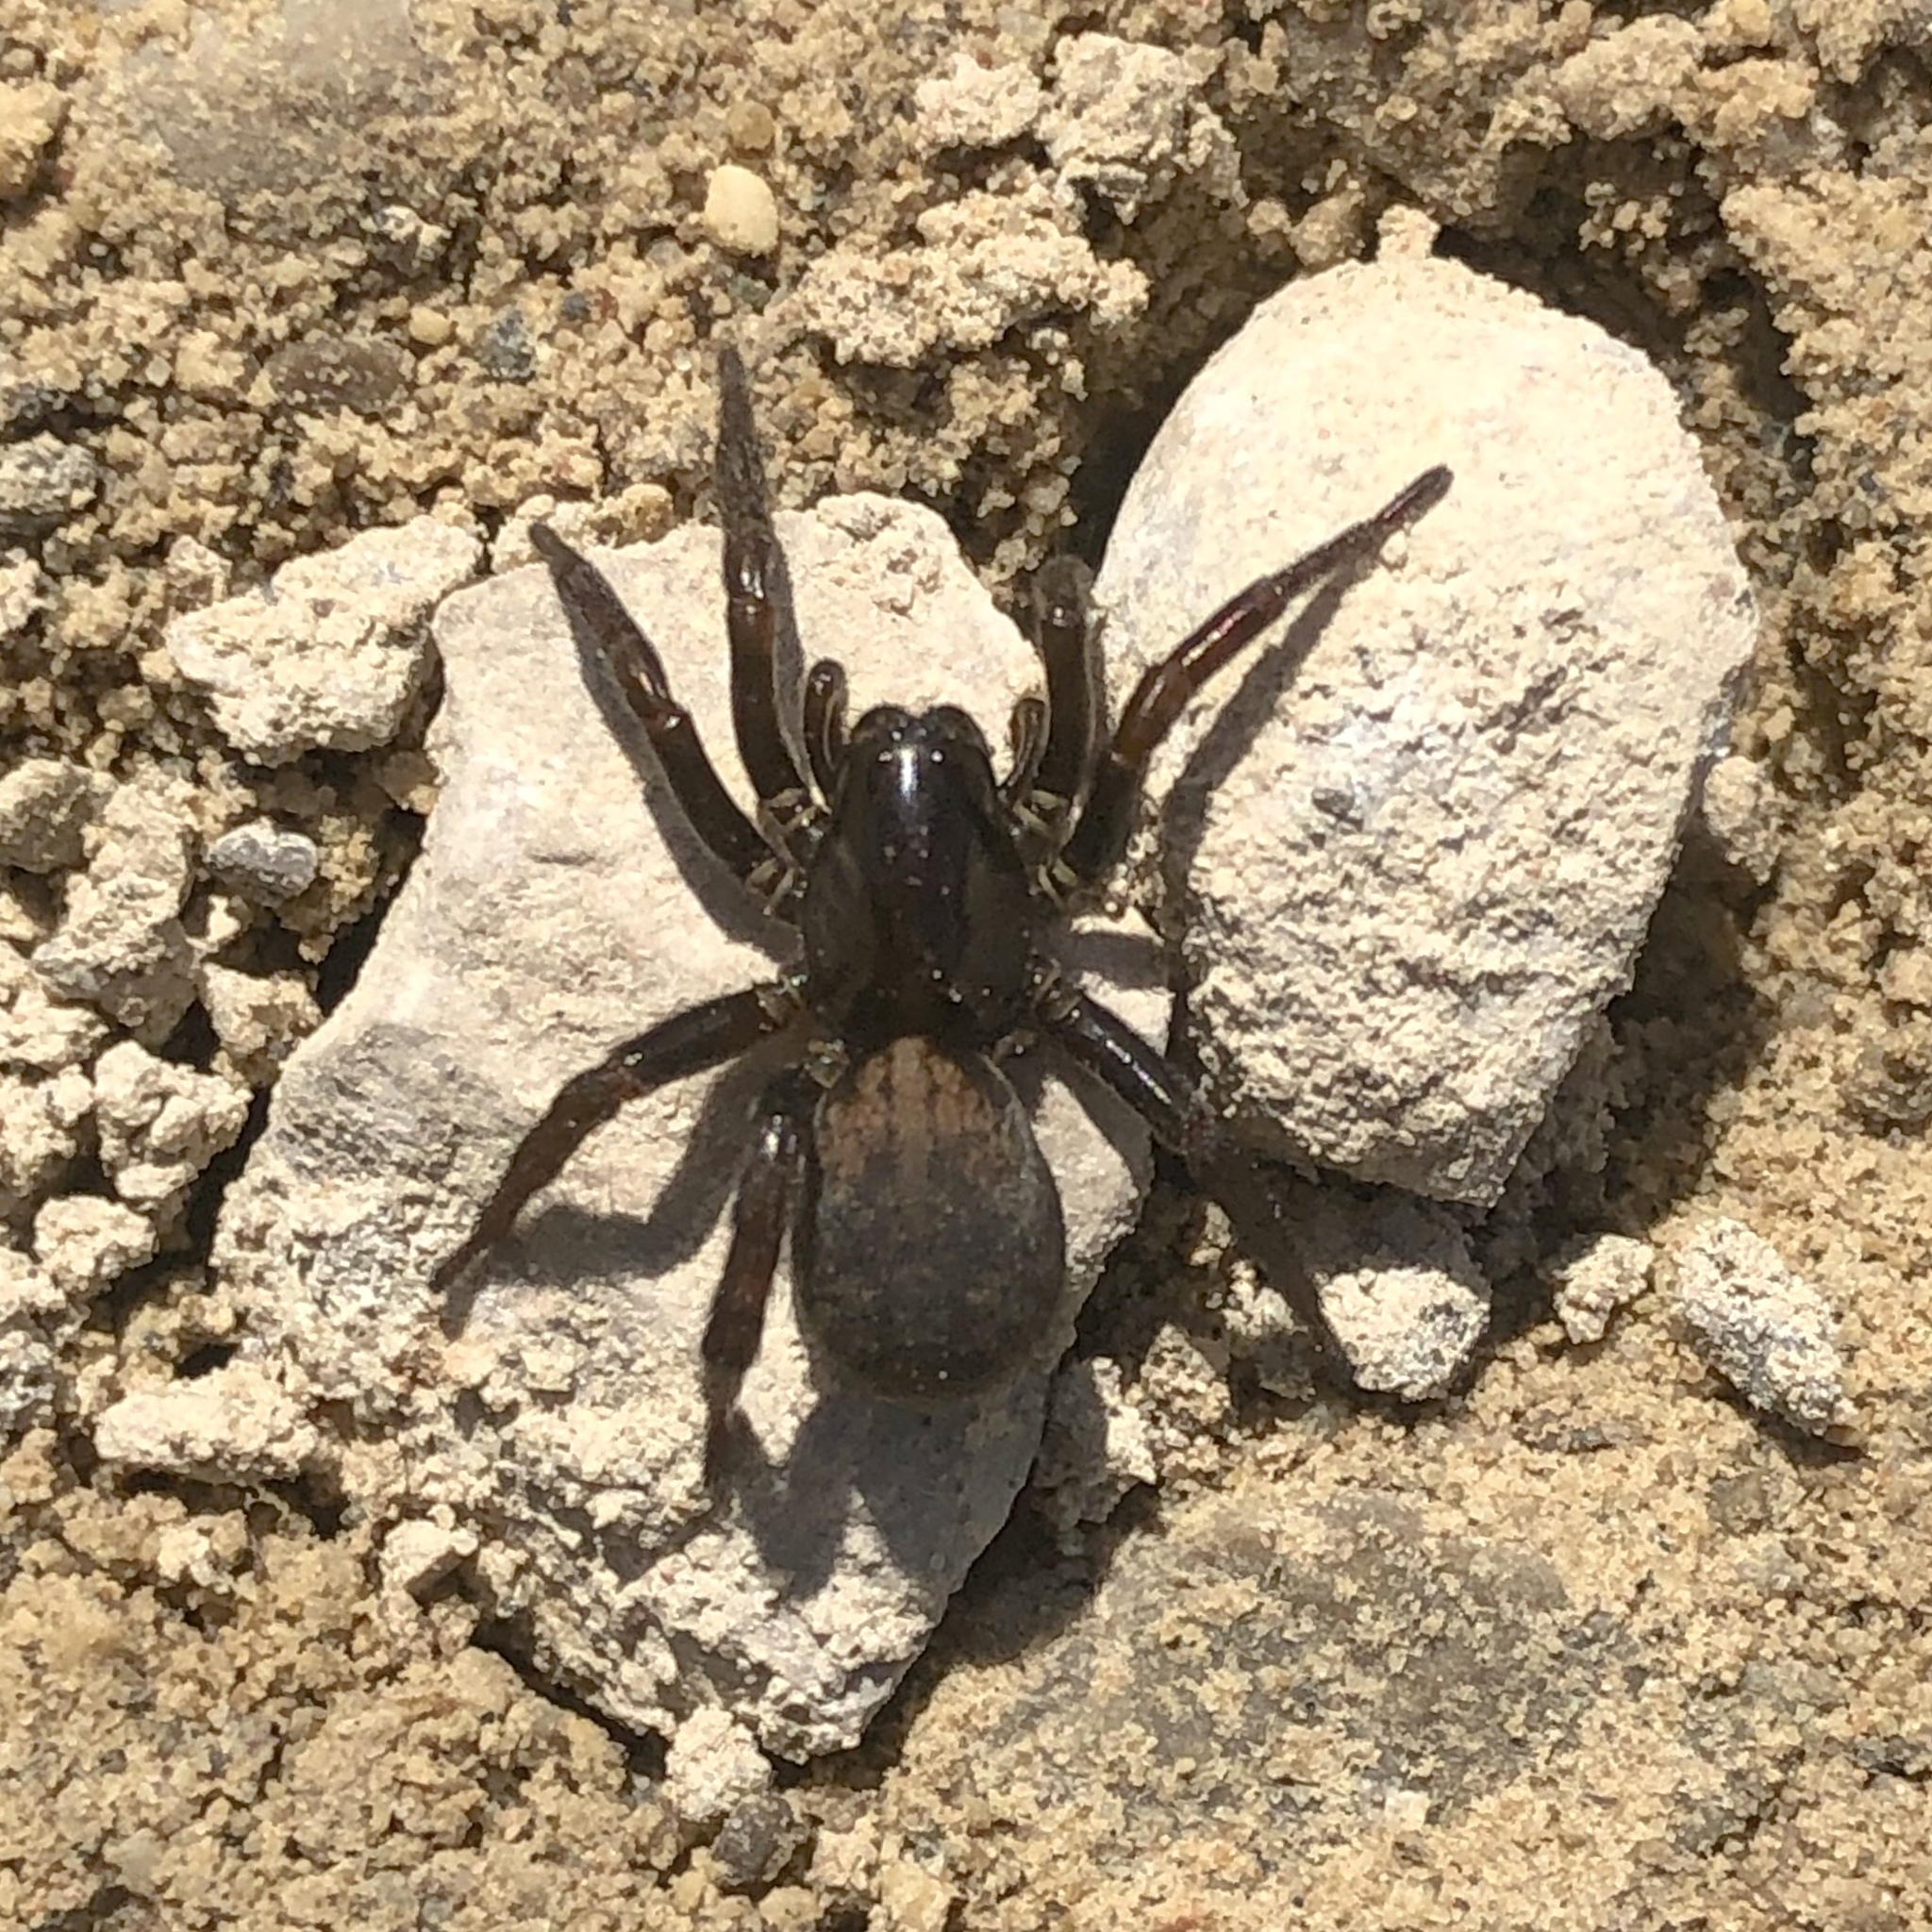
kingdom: Animalia
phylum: Arthropoda
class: Arachnida
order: Araneae
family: Lycosidae
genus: Arctosa
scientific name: Arctosa rubicunda
